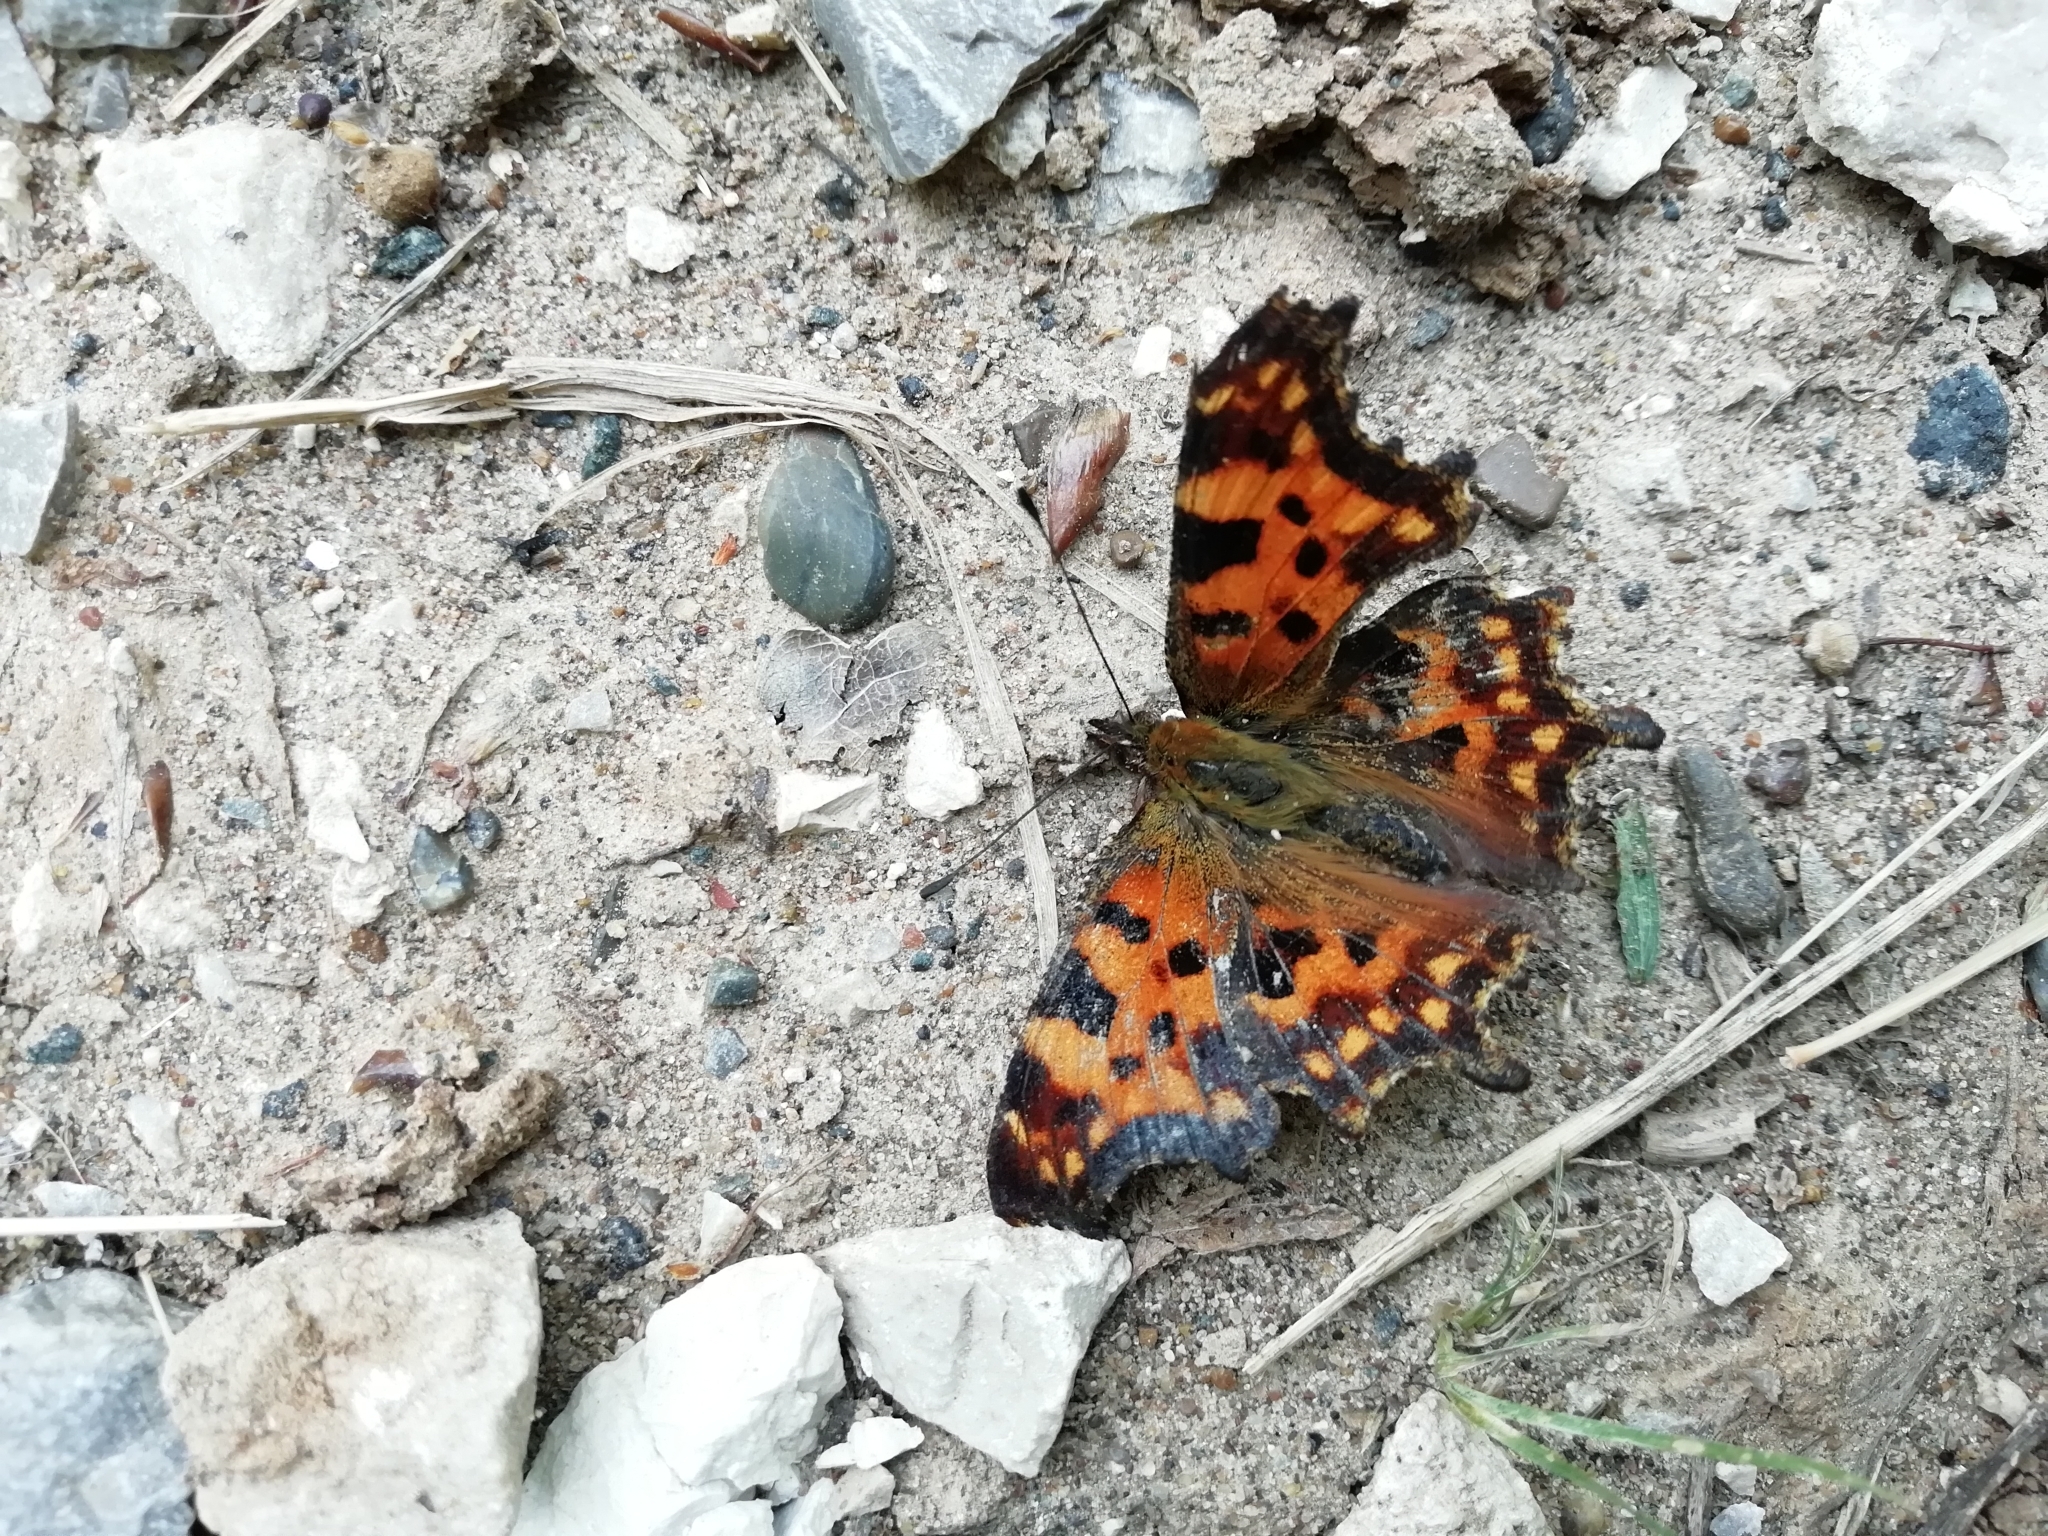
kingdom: Animalia
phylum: Arthropoda
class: Insecta
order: Lepidoptera
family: Nymphalidae
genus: Polygonia
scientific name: Polygonia c-album
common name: Comma
